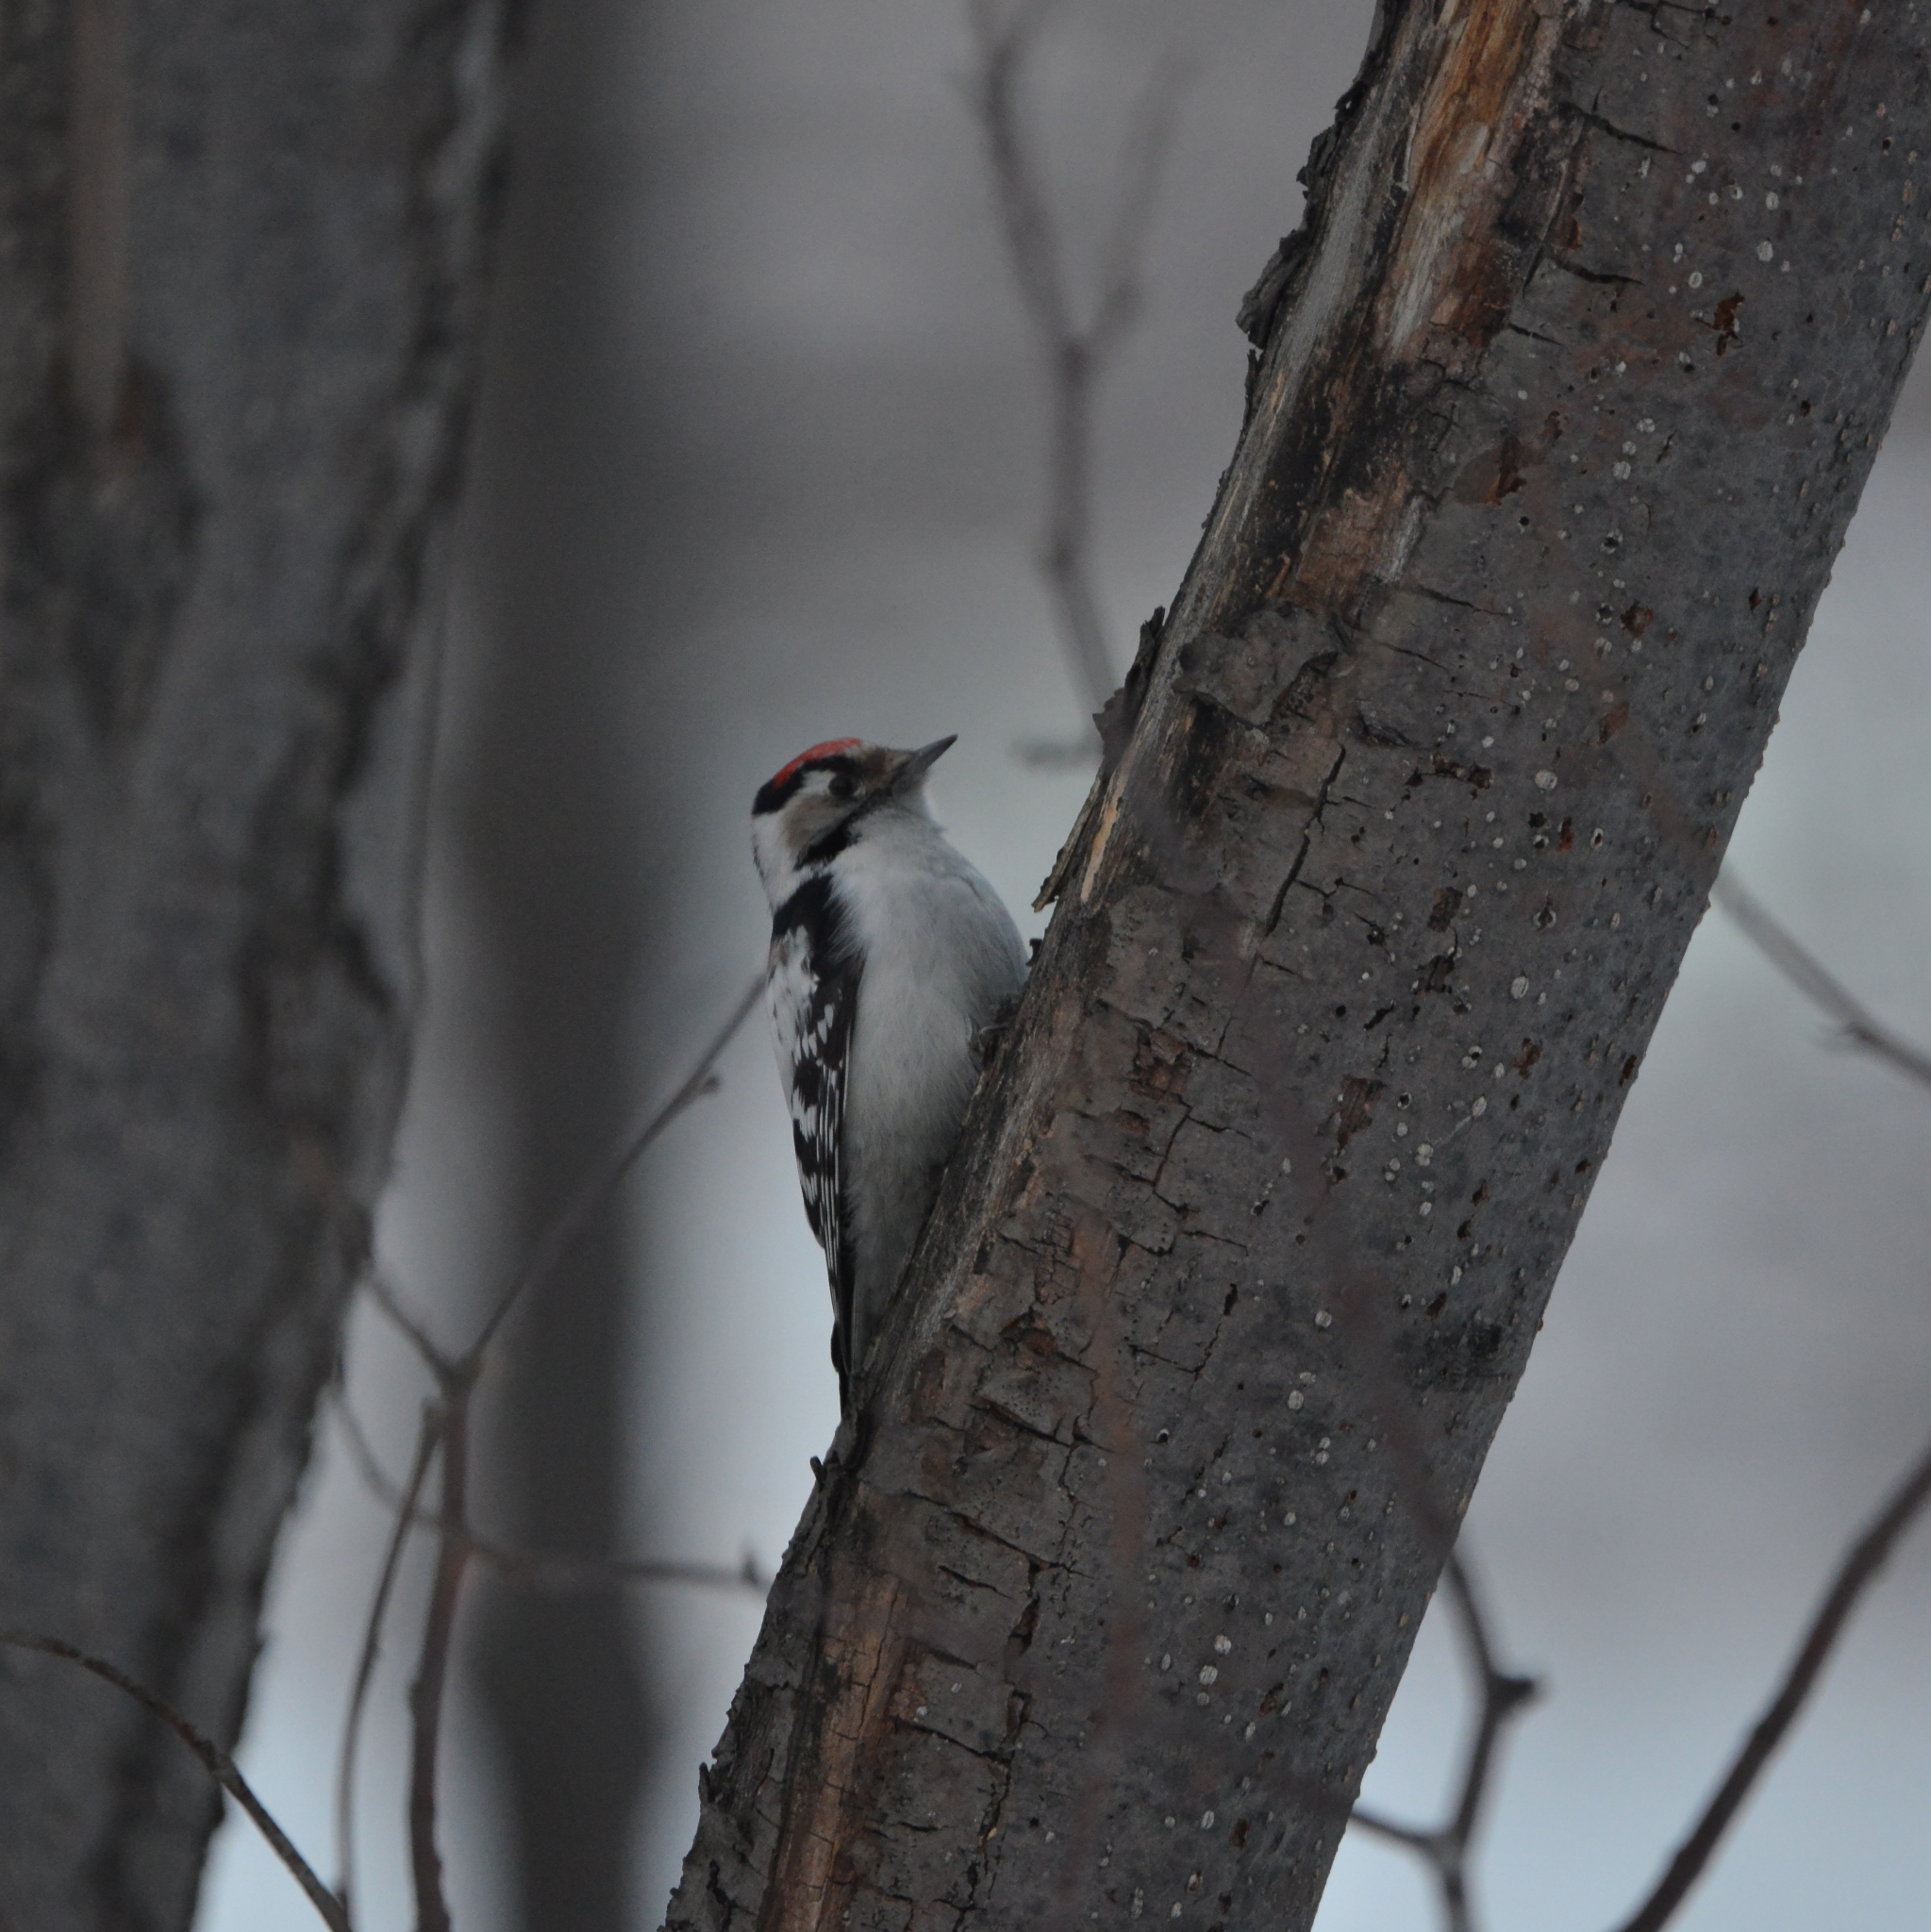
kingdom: Animalia
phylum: Chordata
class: Aves
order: Piciformes
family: Picidae
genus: Dryobates
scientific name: Dryobates minor
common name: Lesser spotted woodpecker
